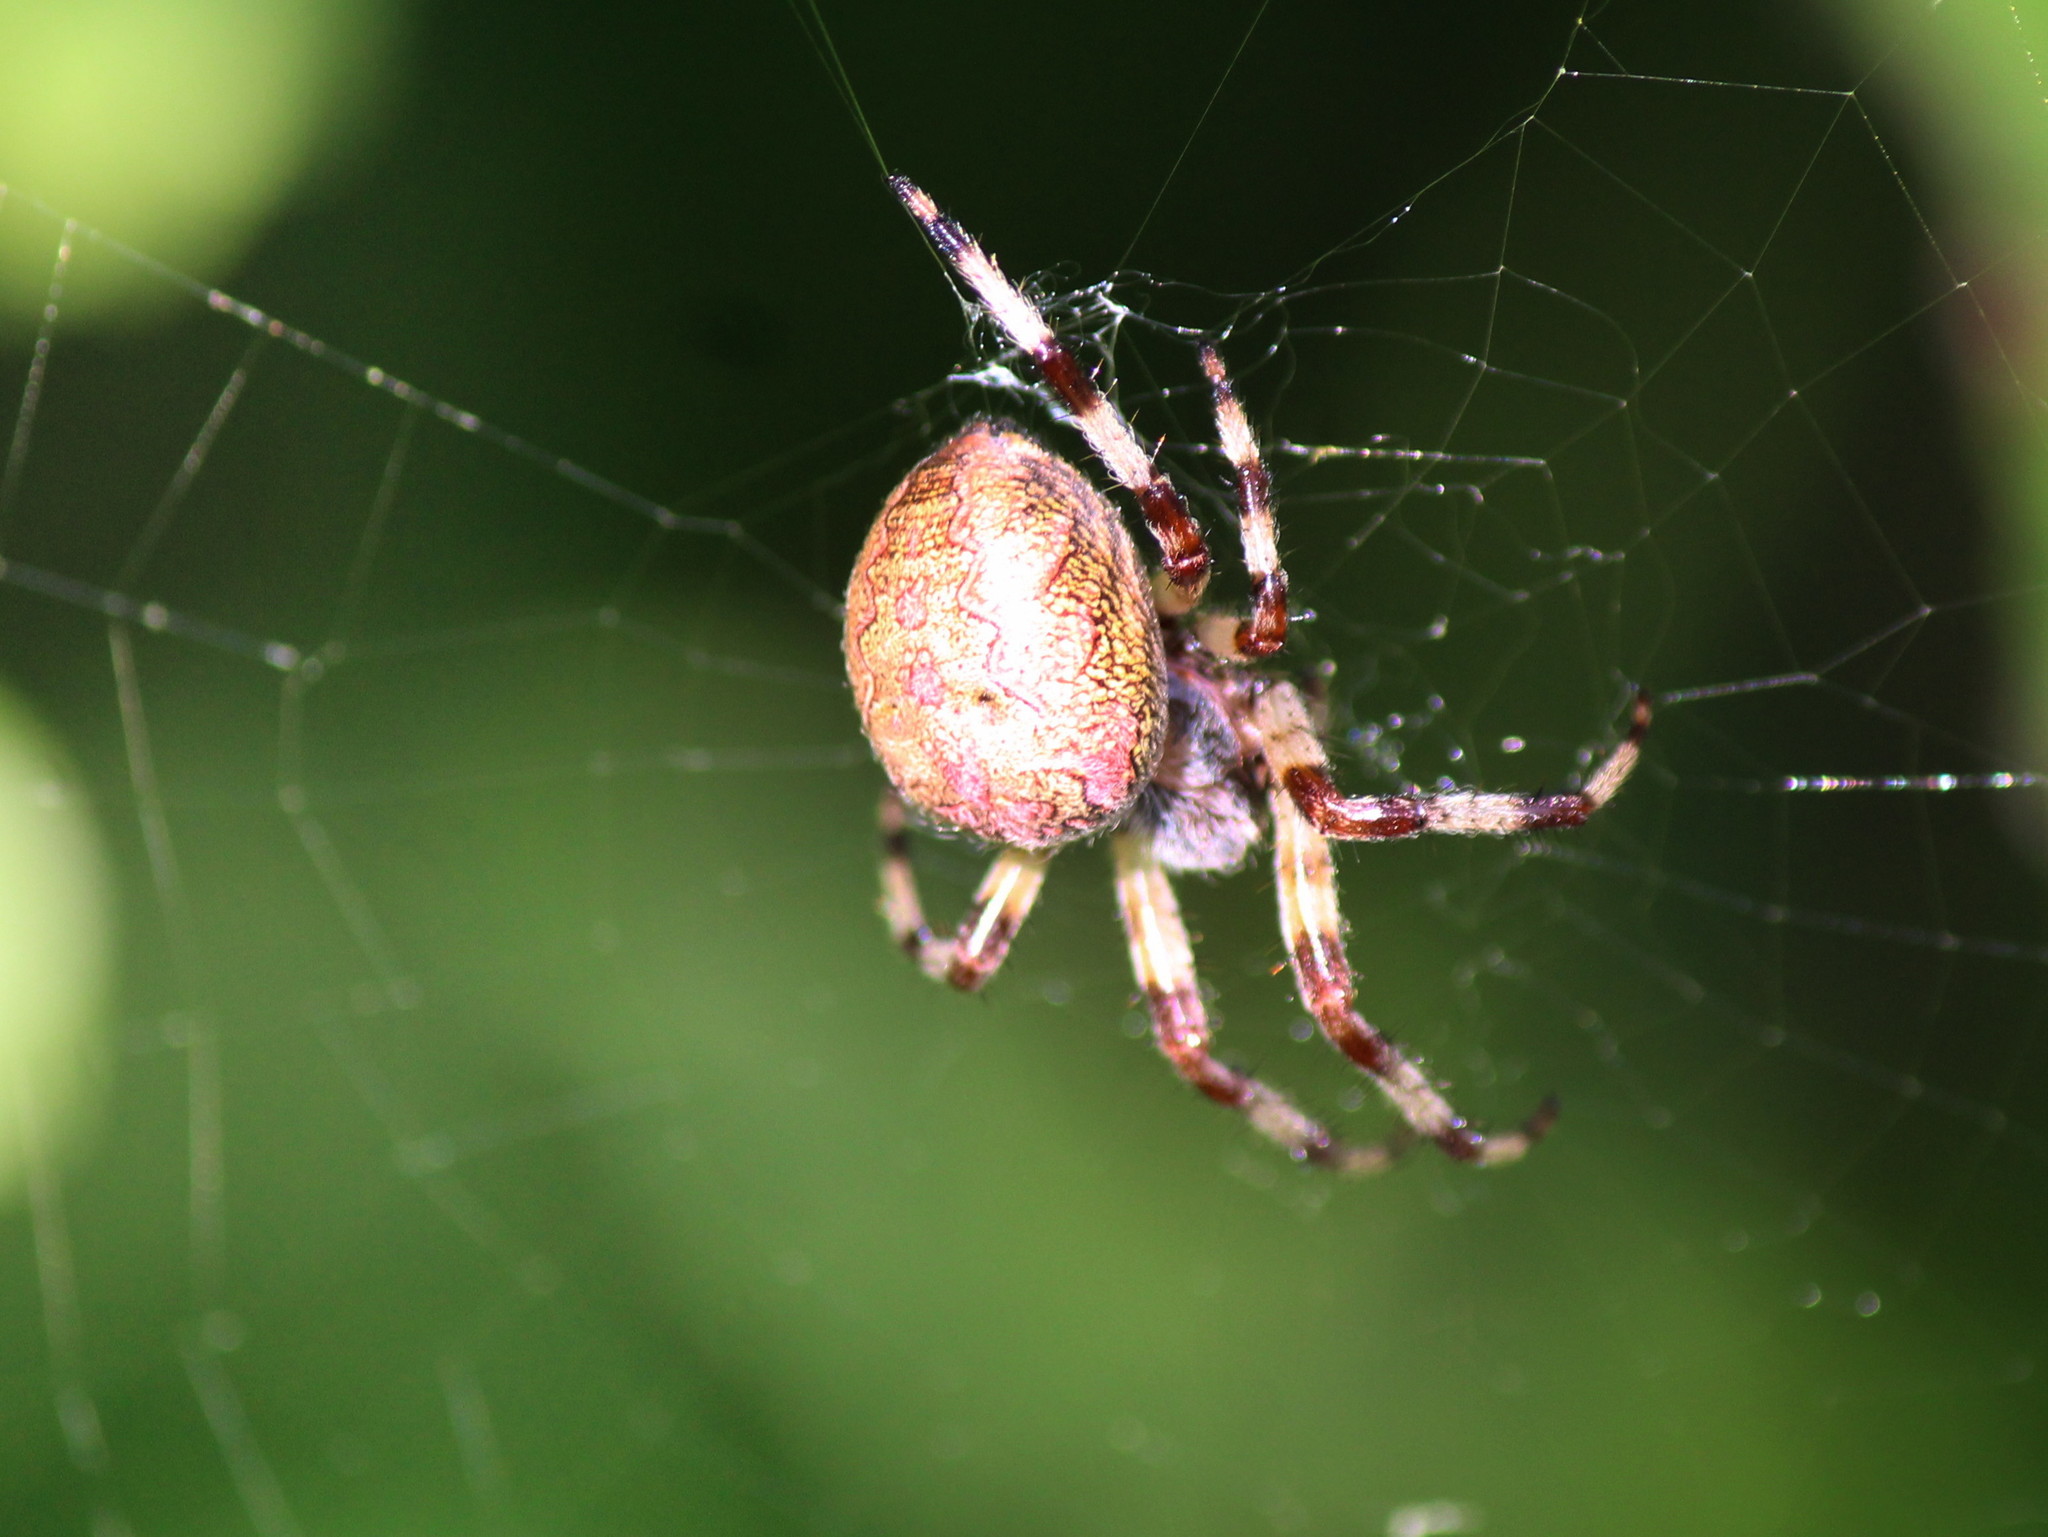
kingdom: Animalia
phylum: Arthropoda
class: Arachnida
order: Araneae
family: Araneidae
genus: Araneus
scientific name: Araneus marmoreus
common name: Marbled orbweaver
